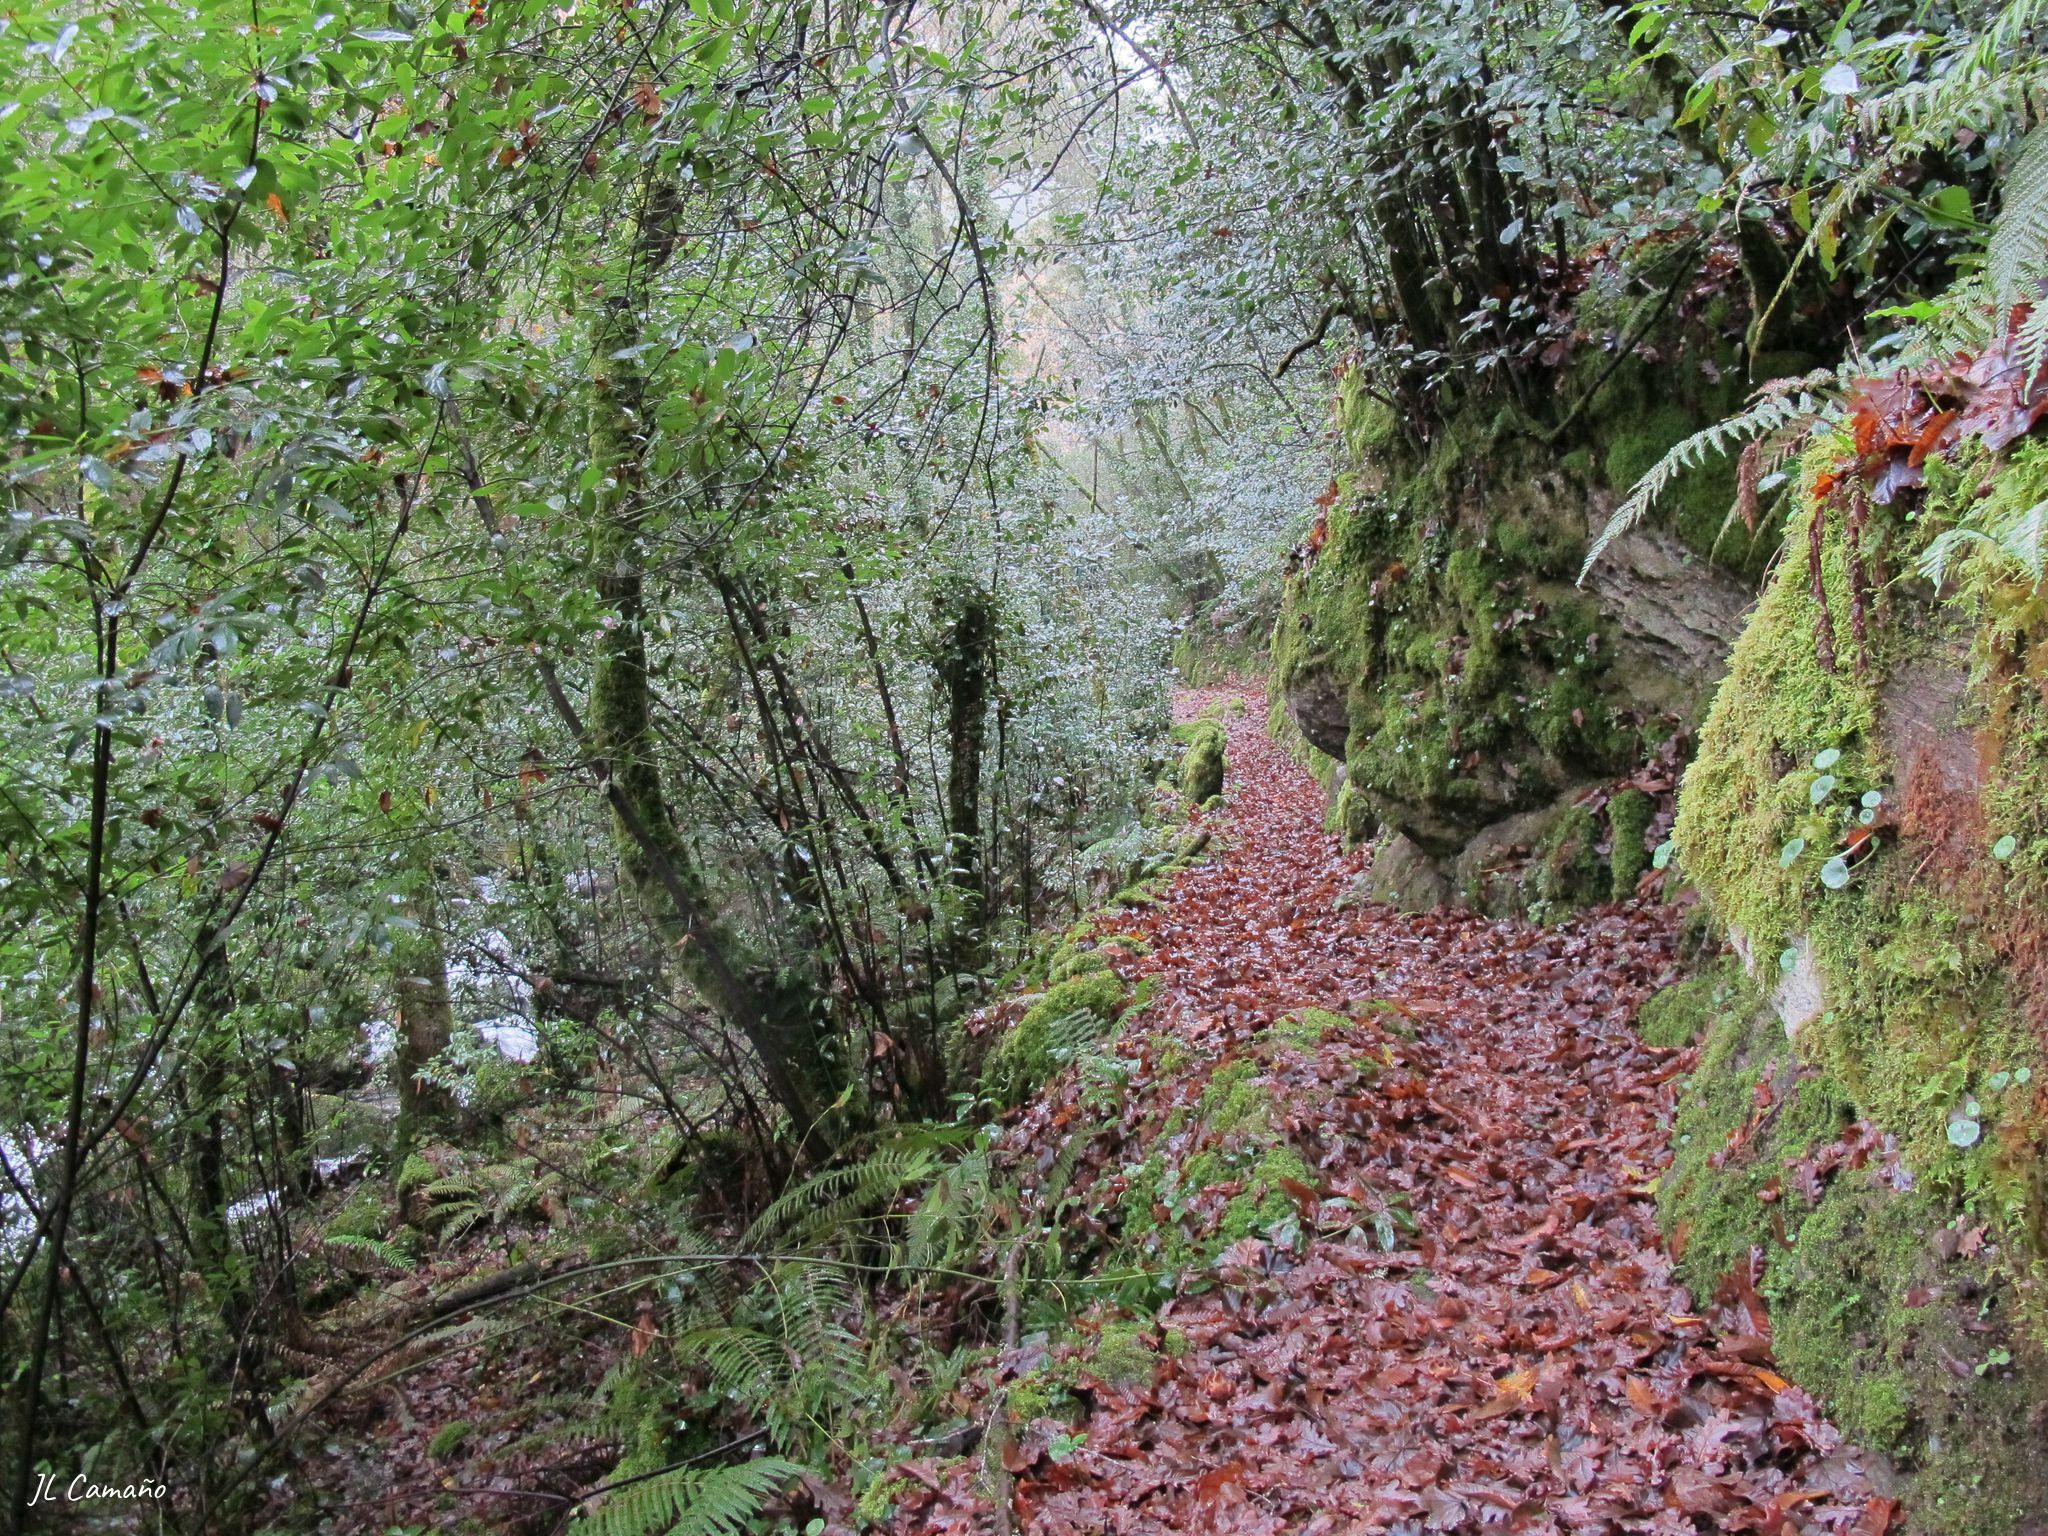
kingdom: Plantae
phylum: Bryophyta
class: Bryopsida
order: Hypnales
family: Thuidiaceae
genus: Thuidium
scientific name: Thuidium tamariscinum
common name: Common tamarisk-moss
